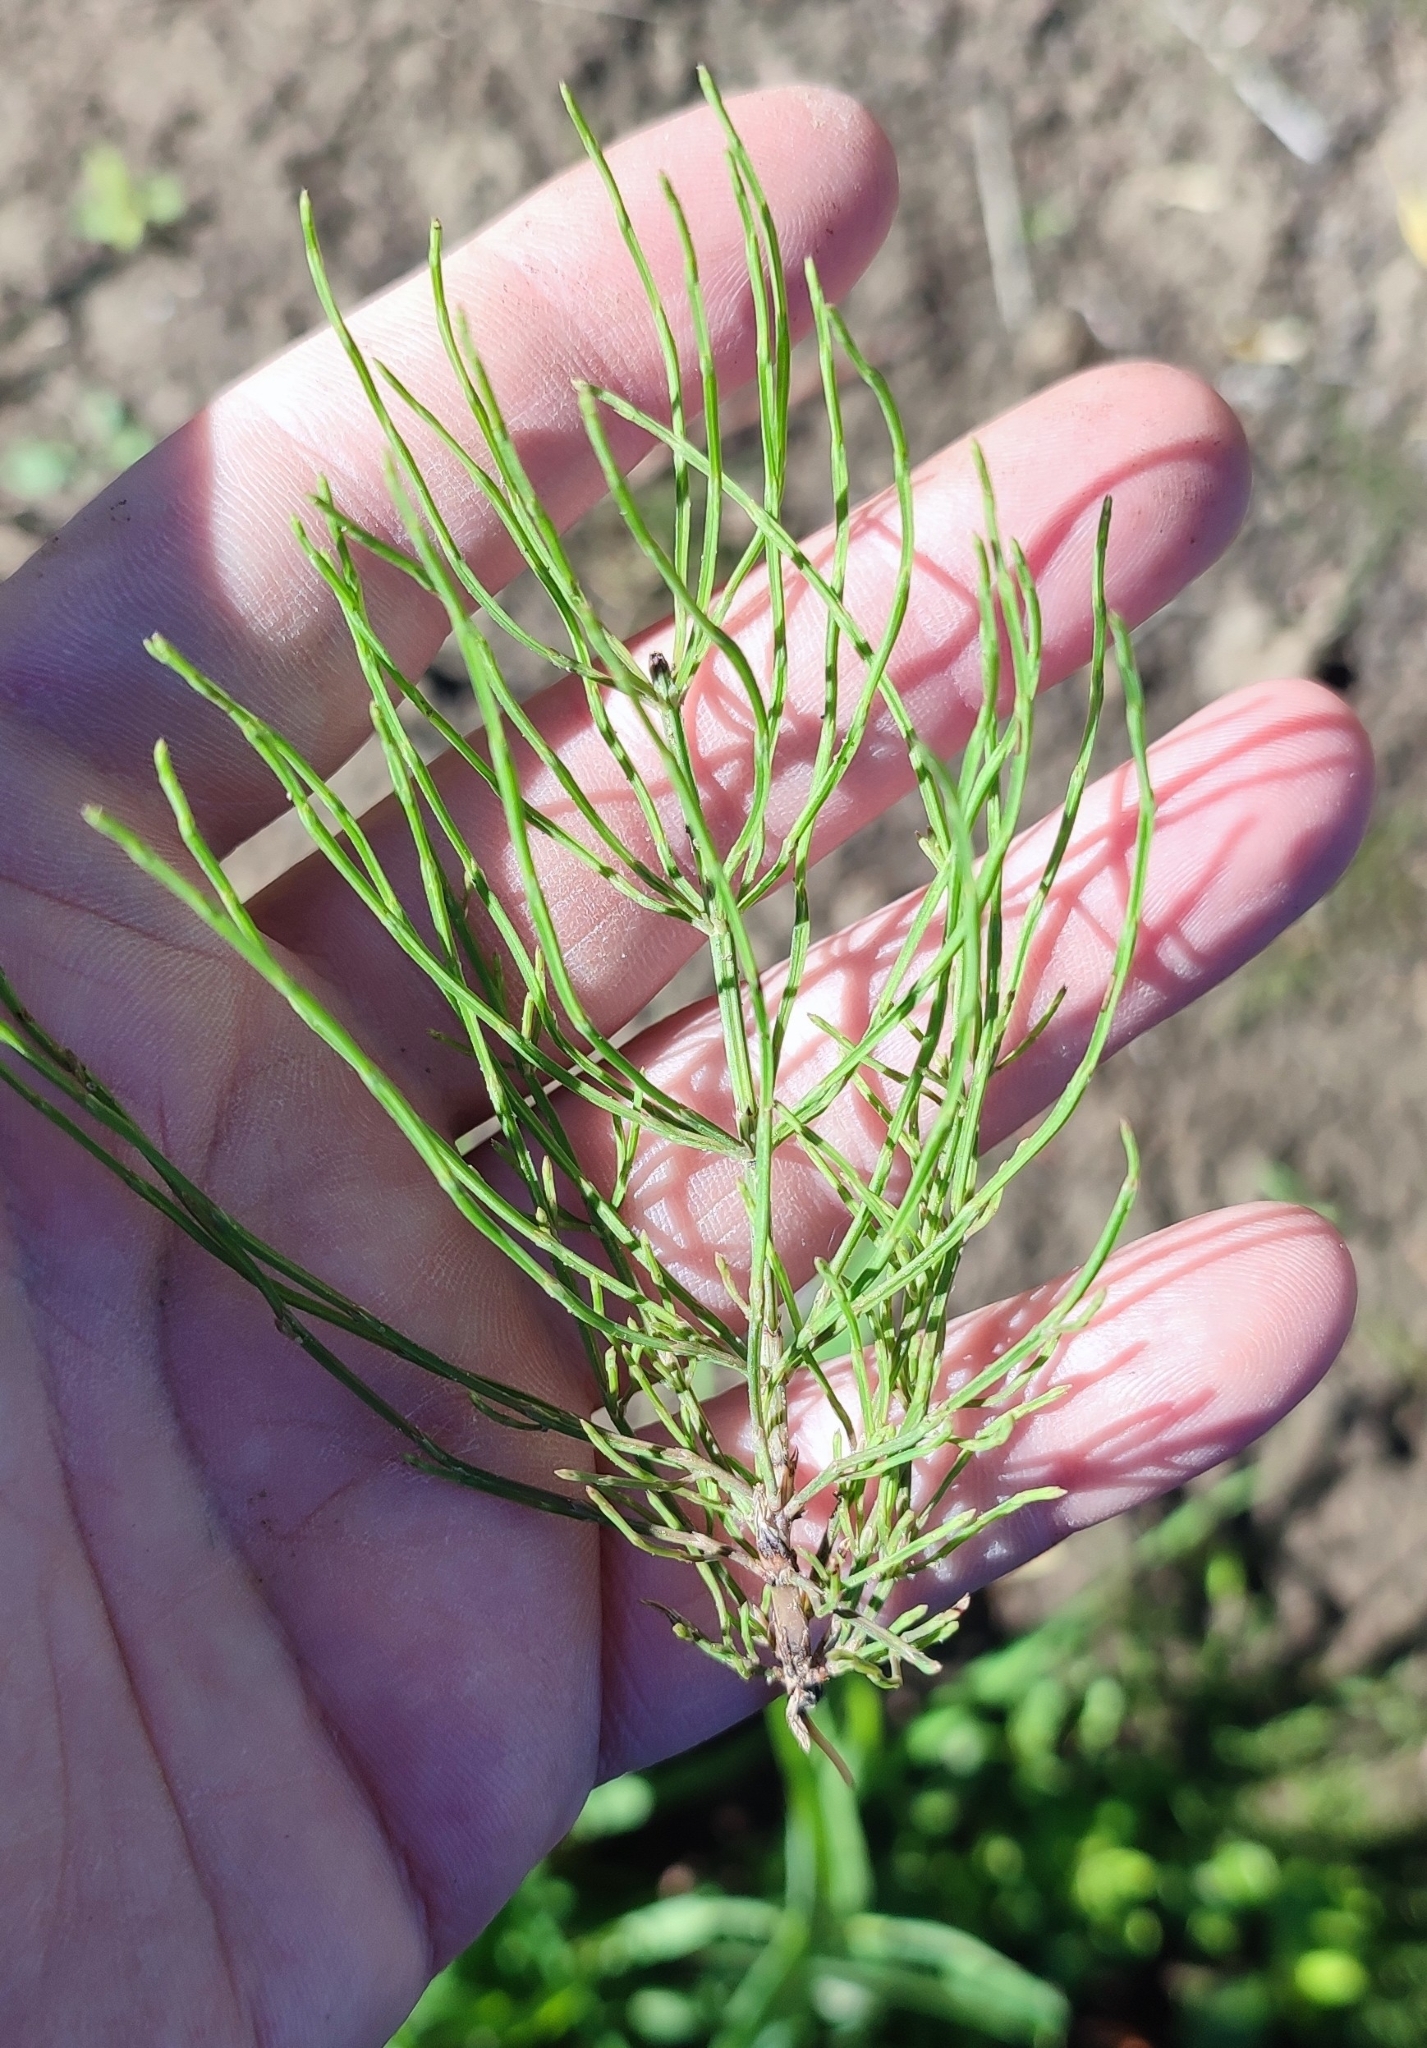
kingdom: Plantae
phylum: Tracheophyta
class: Polypodiopsida
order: Equisetales
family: Equisetaceae
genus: Equisetum
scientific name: Equisetum arvense
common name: Field horsetail
